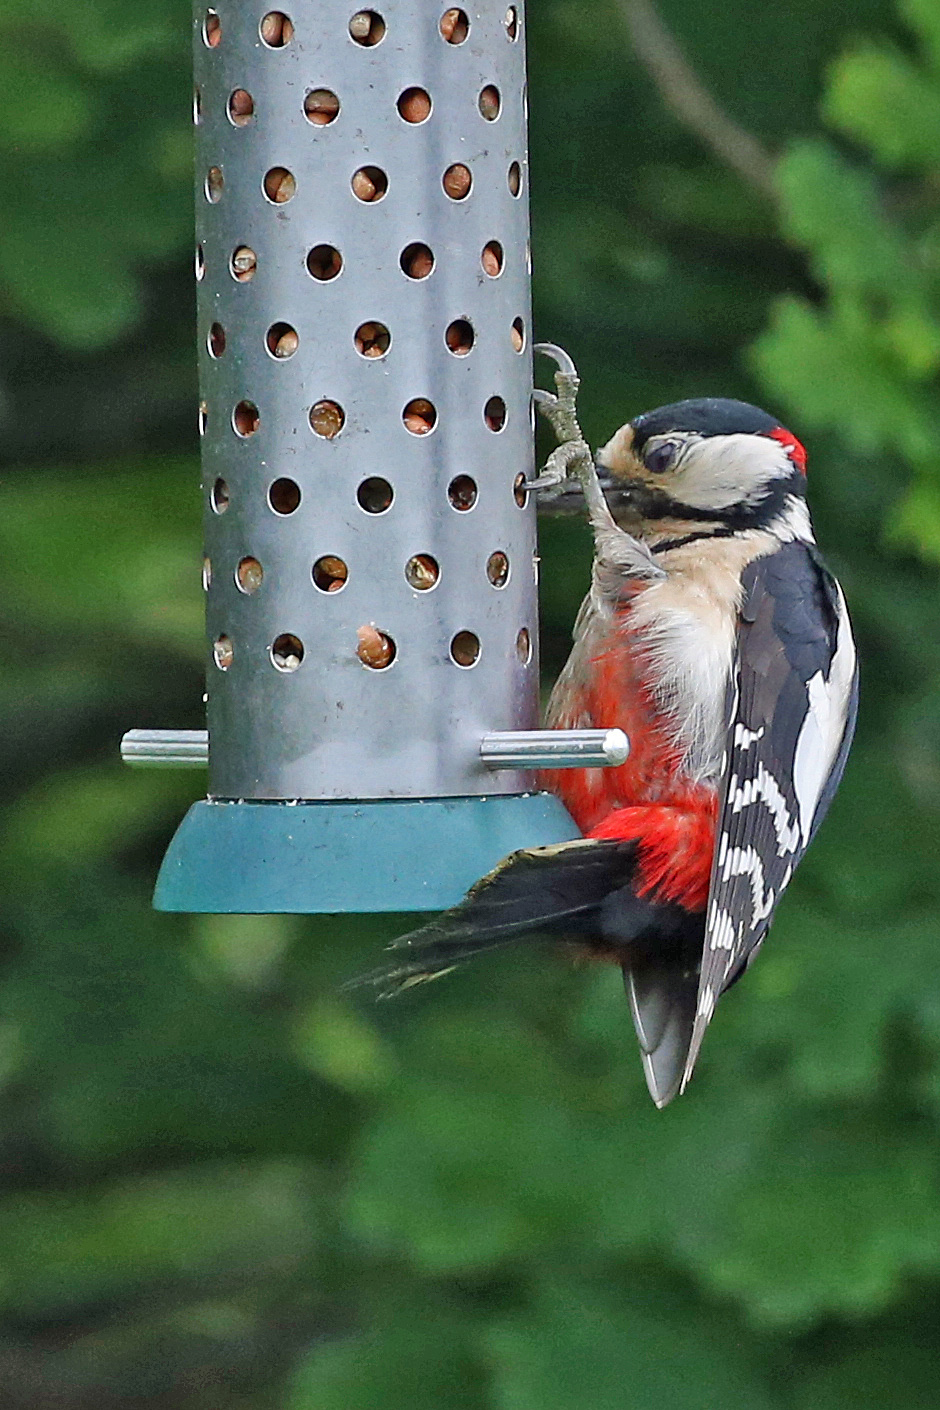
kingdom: Animalia
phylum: Chordata
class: Aves
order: Piciformes
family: Picidae
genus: Dendrocopos
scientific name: Dendrocopos major
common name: Great spotted woodpecker
